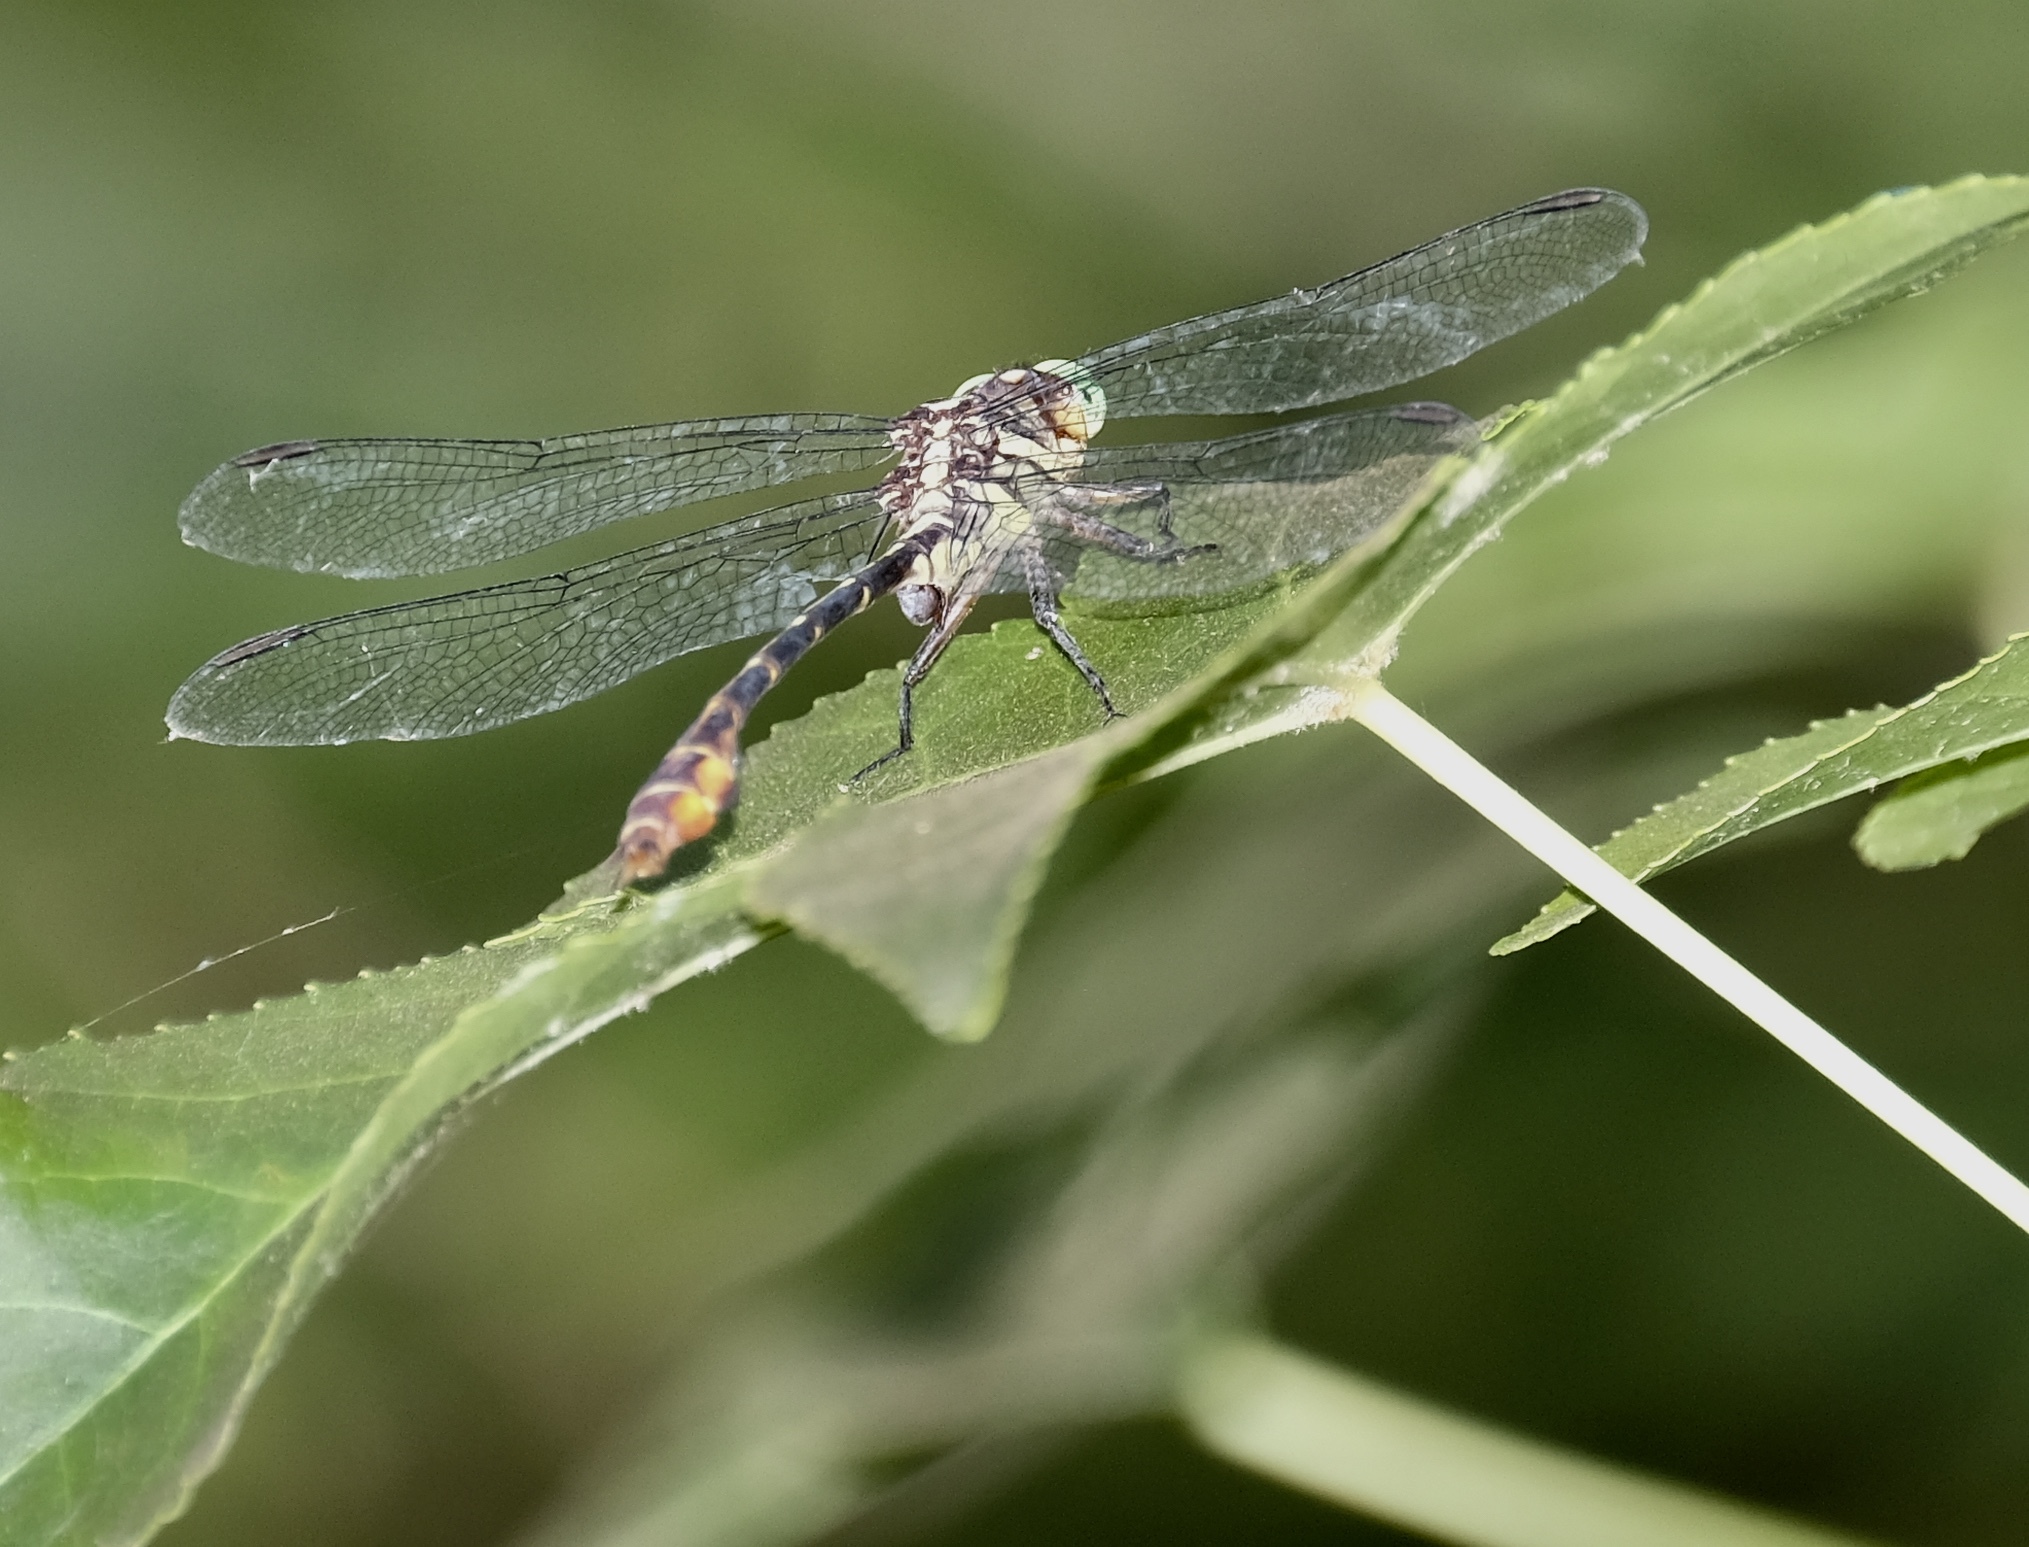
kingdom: Animalia
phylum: Arthropoda
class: Insecta
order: Odonata
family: Gomphidae
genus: Stylurus
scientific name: Stylurus laurae
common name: Laura's clubtail
